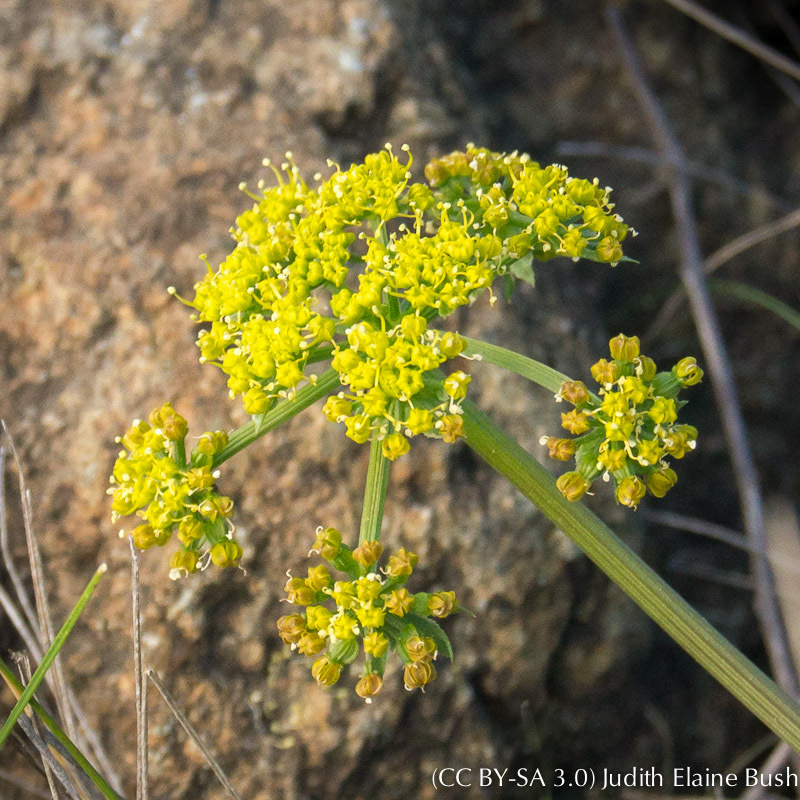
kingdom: Plantae
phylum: Tracheophyta
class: Magnoliopsida
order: Apiales
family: Apiaceae
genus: Lomatium
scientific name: Lomatium dasycarpum
